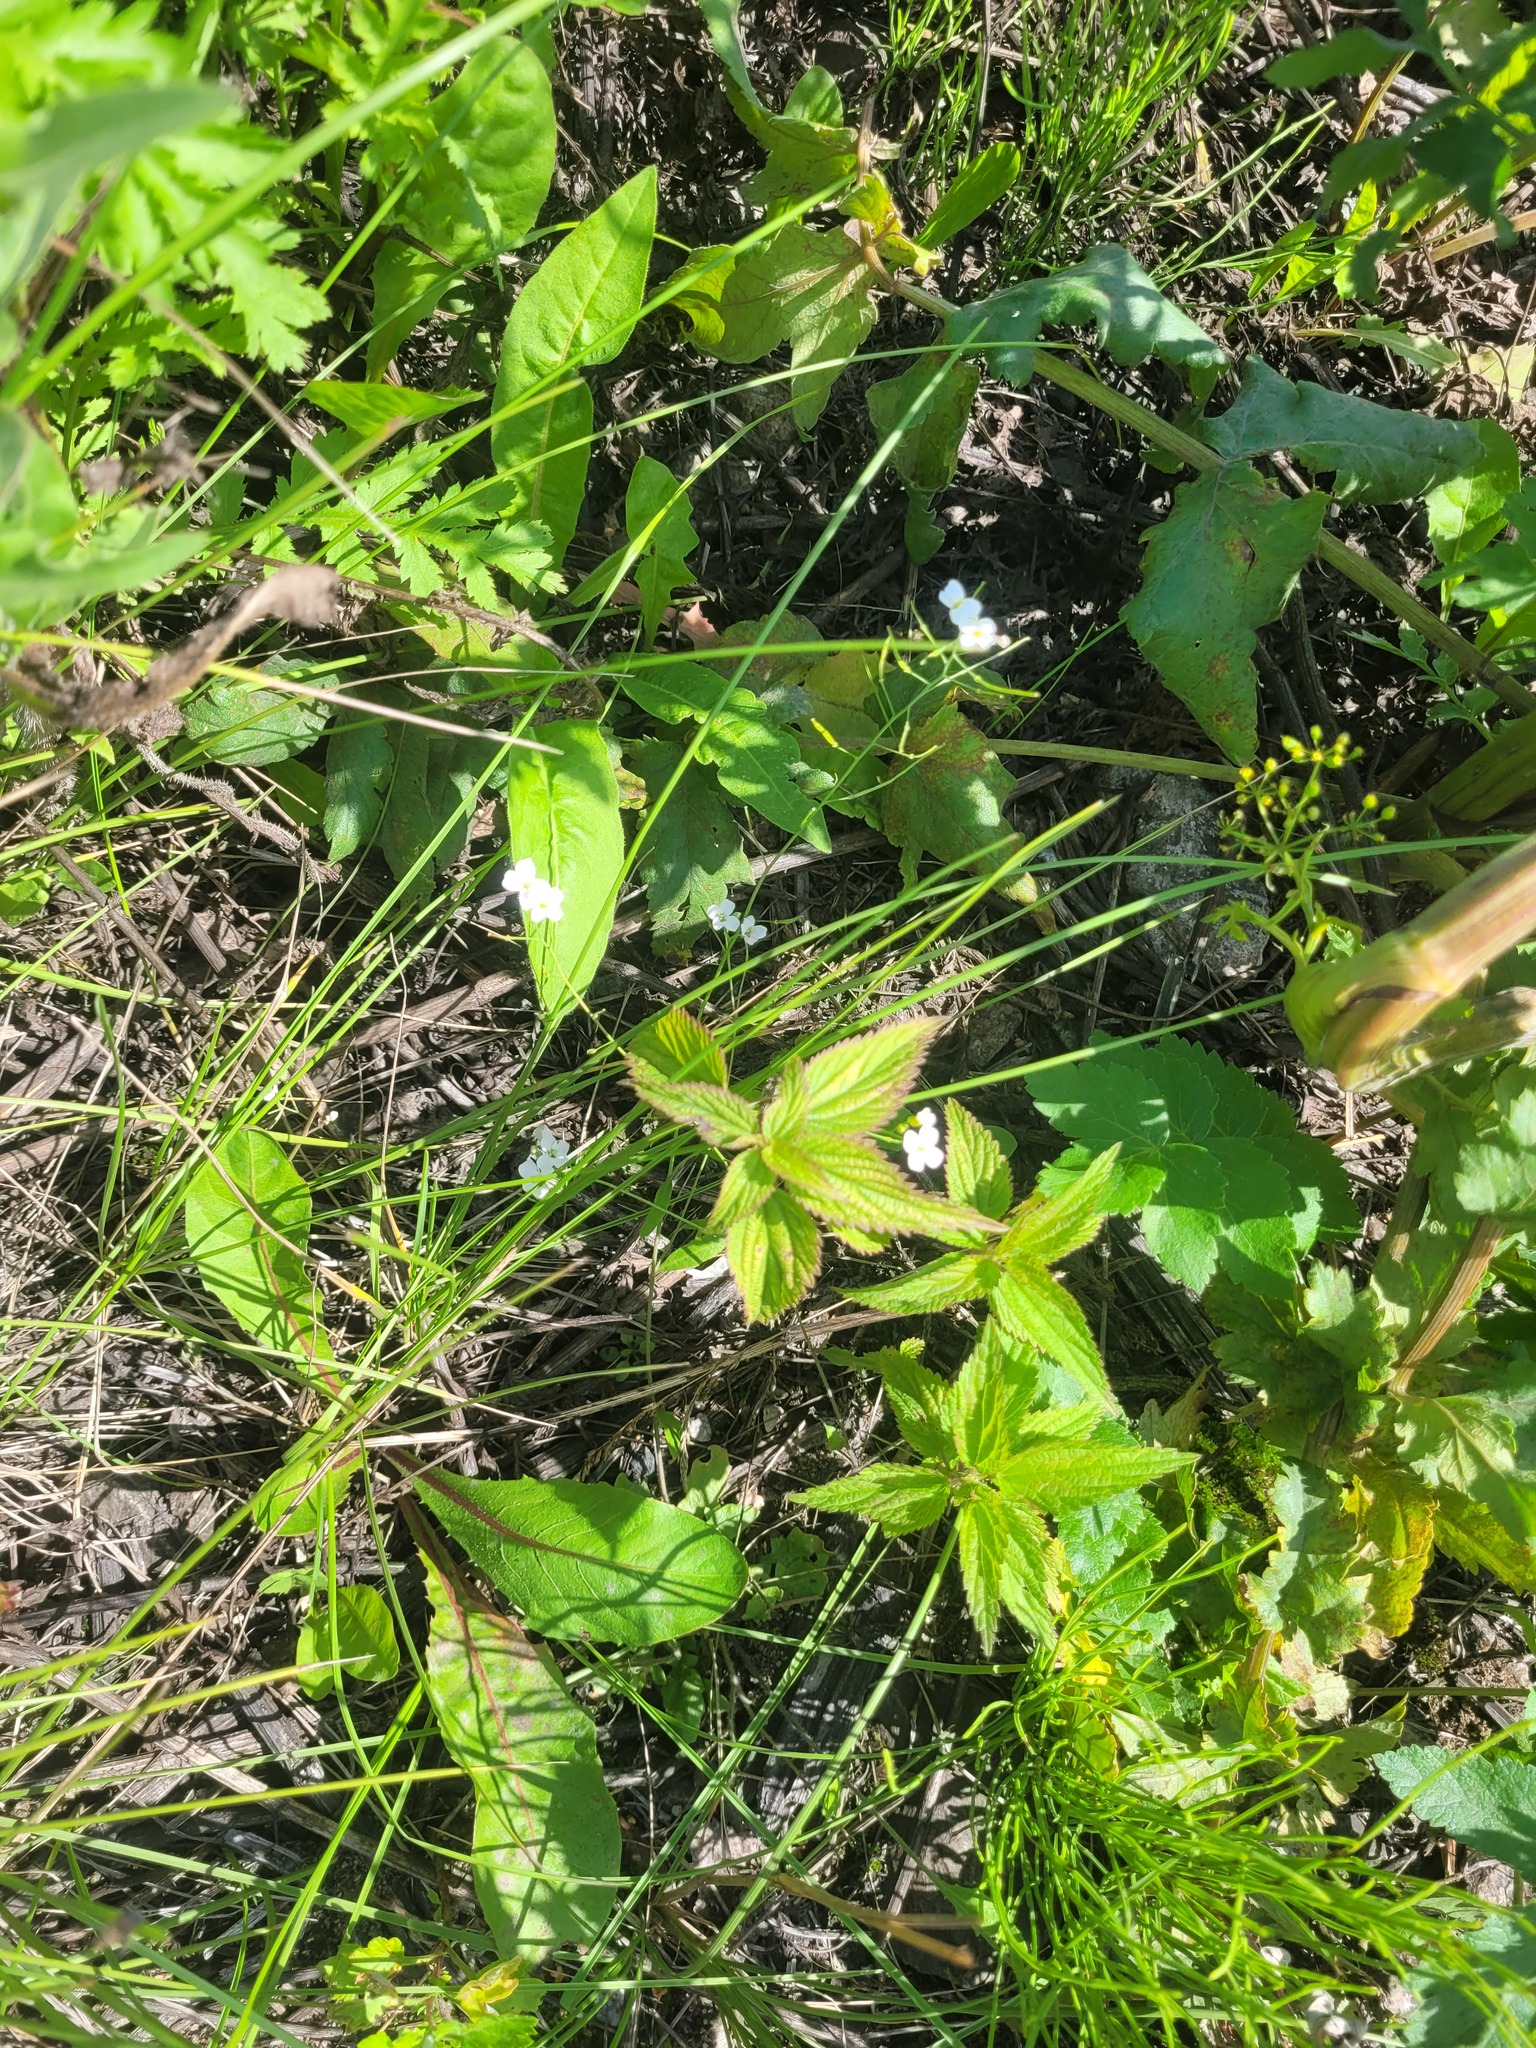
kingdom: Plantae
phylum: Tracheophyta
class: Magnoliopsida
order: Rosales
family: Urticaceae
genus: Urtica
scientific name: Urtica dioica
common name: Common nettle
